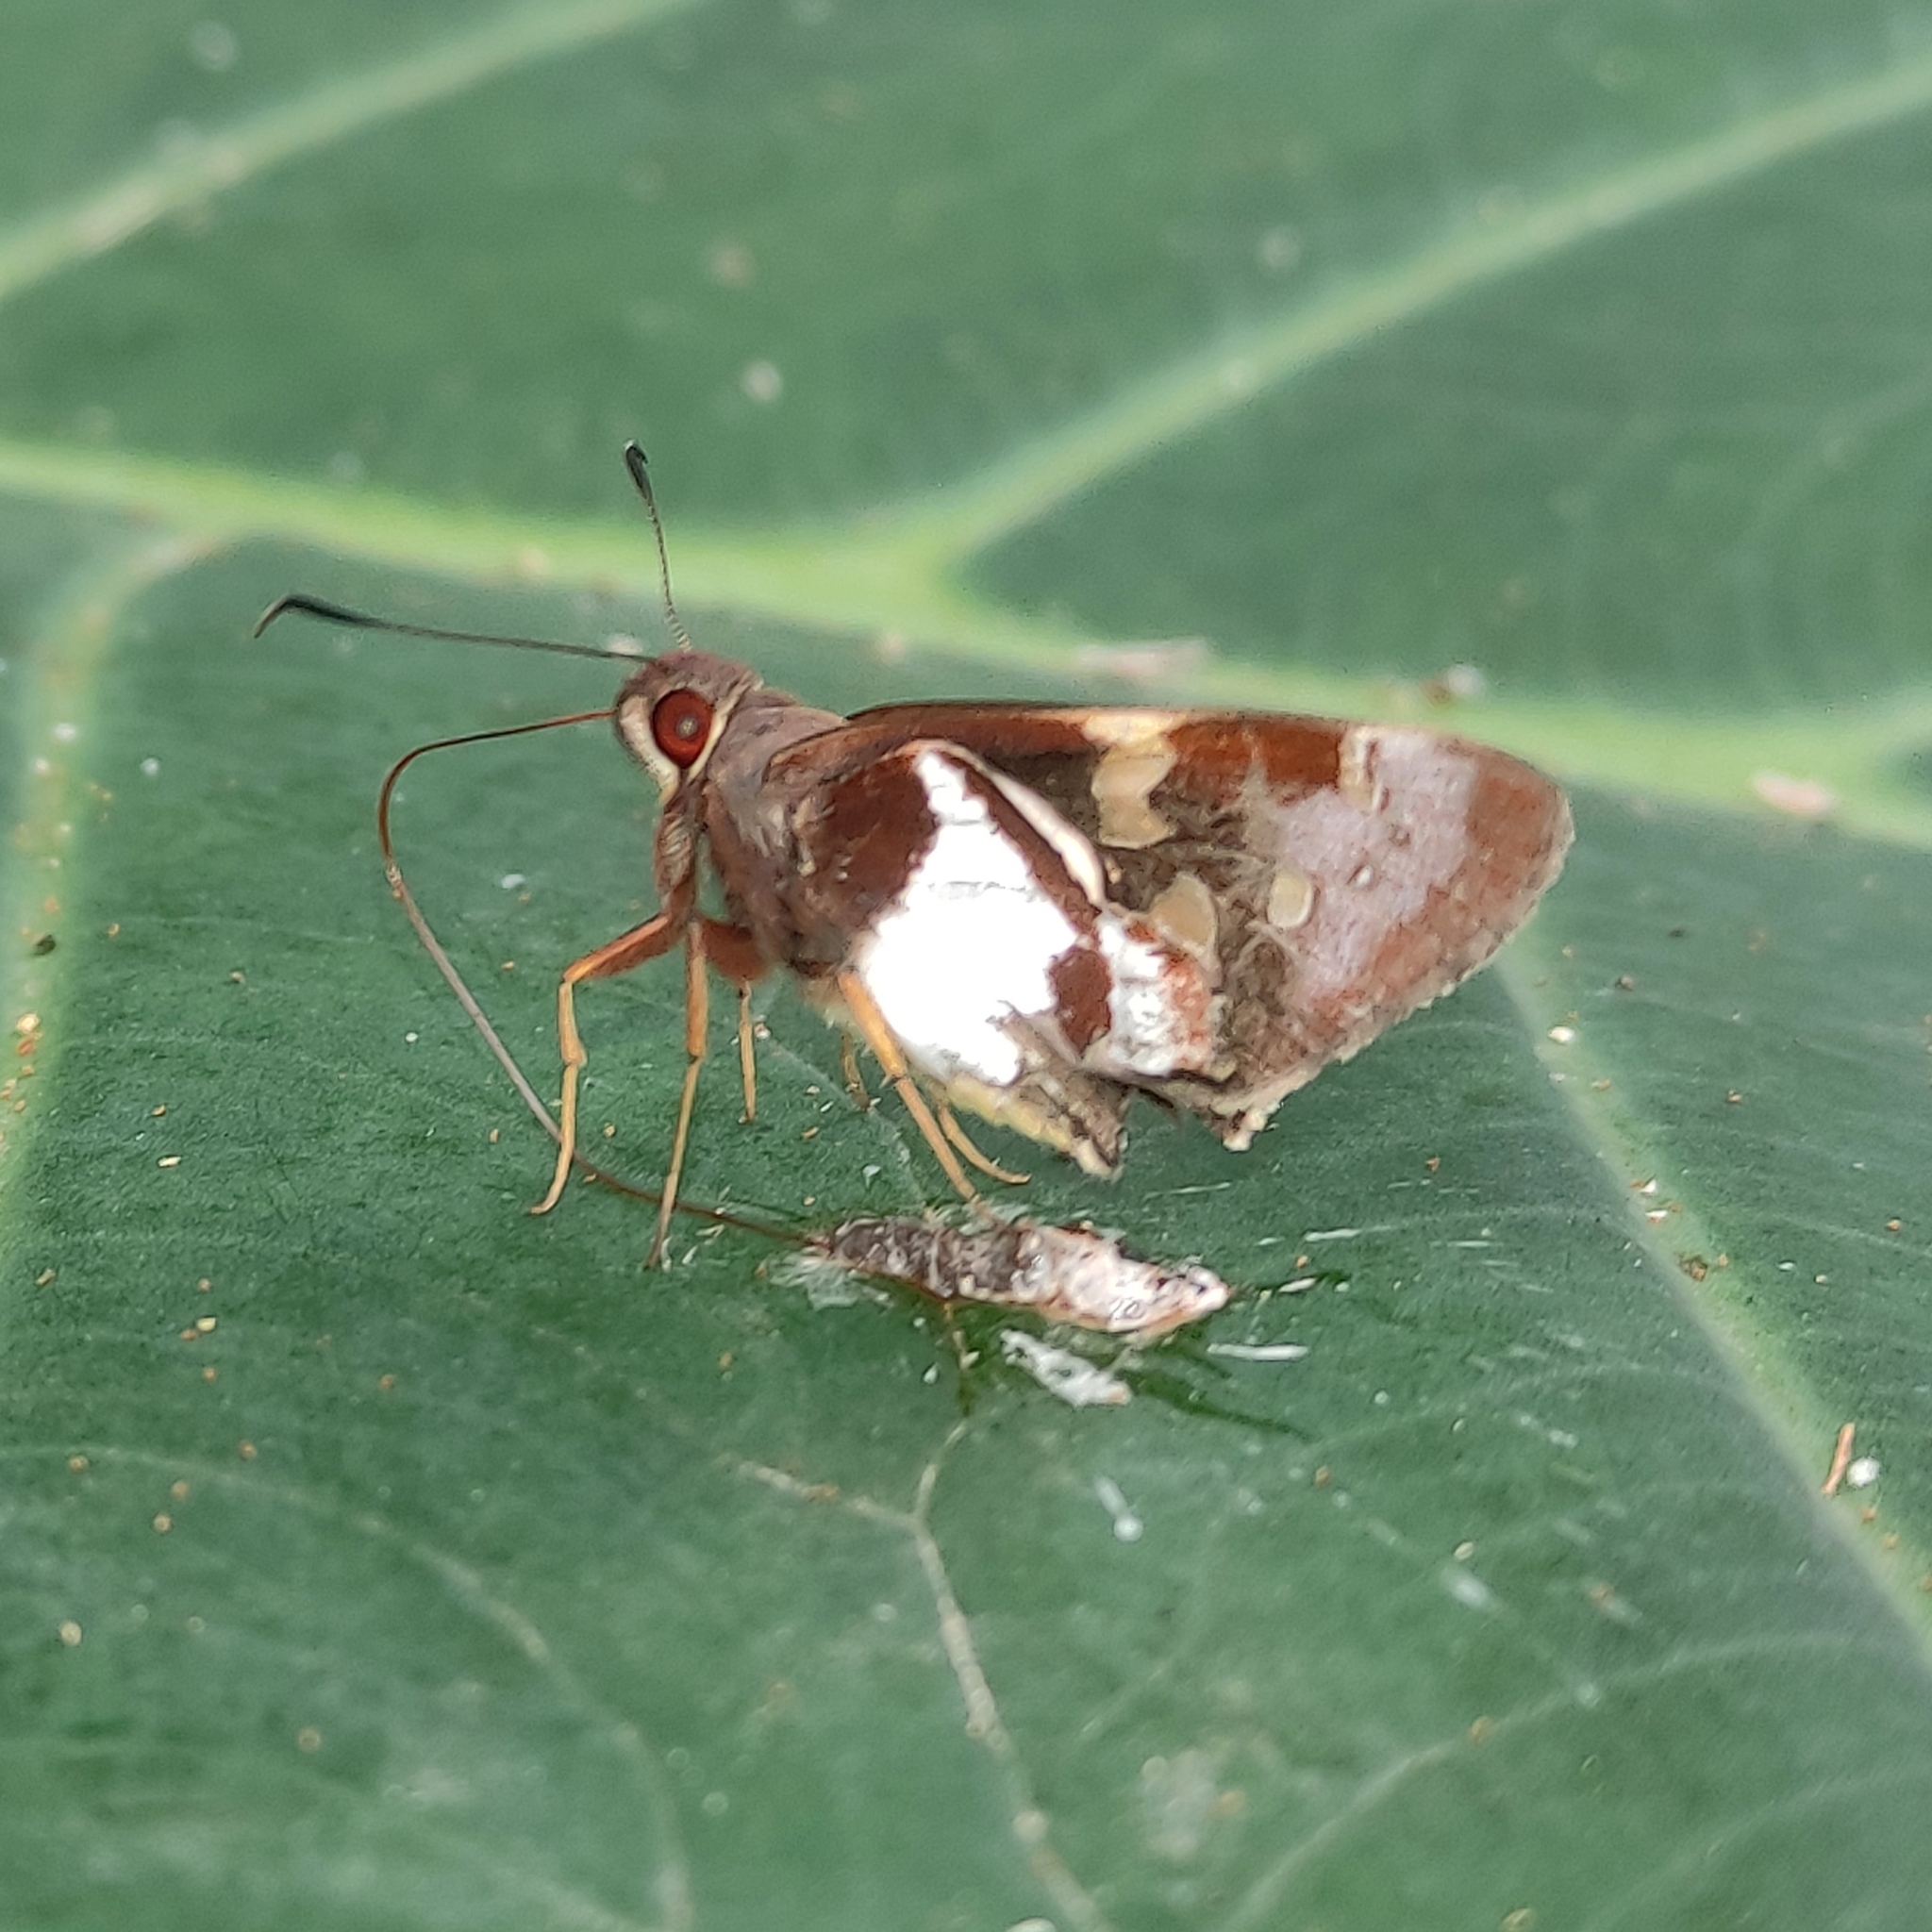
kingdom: Animalia
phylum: Arthropoda
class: Insecta
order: Lepidoptera
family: Hesperiidae
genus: Lycas
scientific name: Lycas argentea
